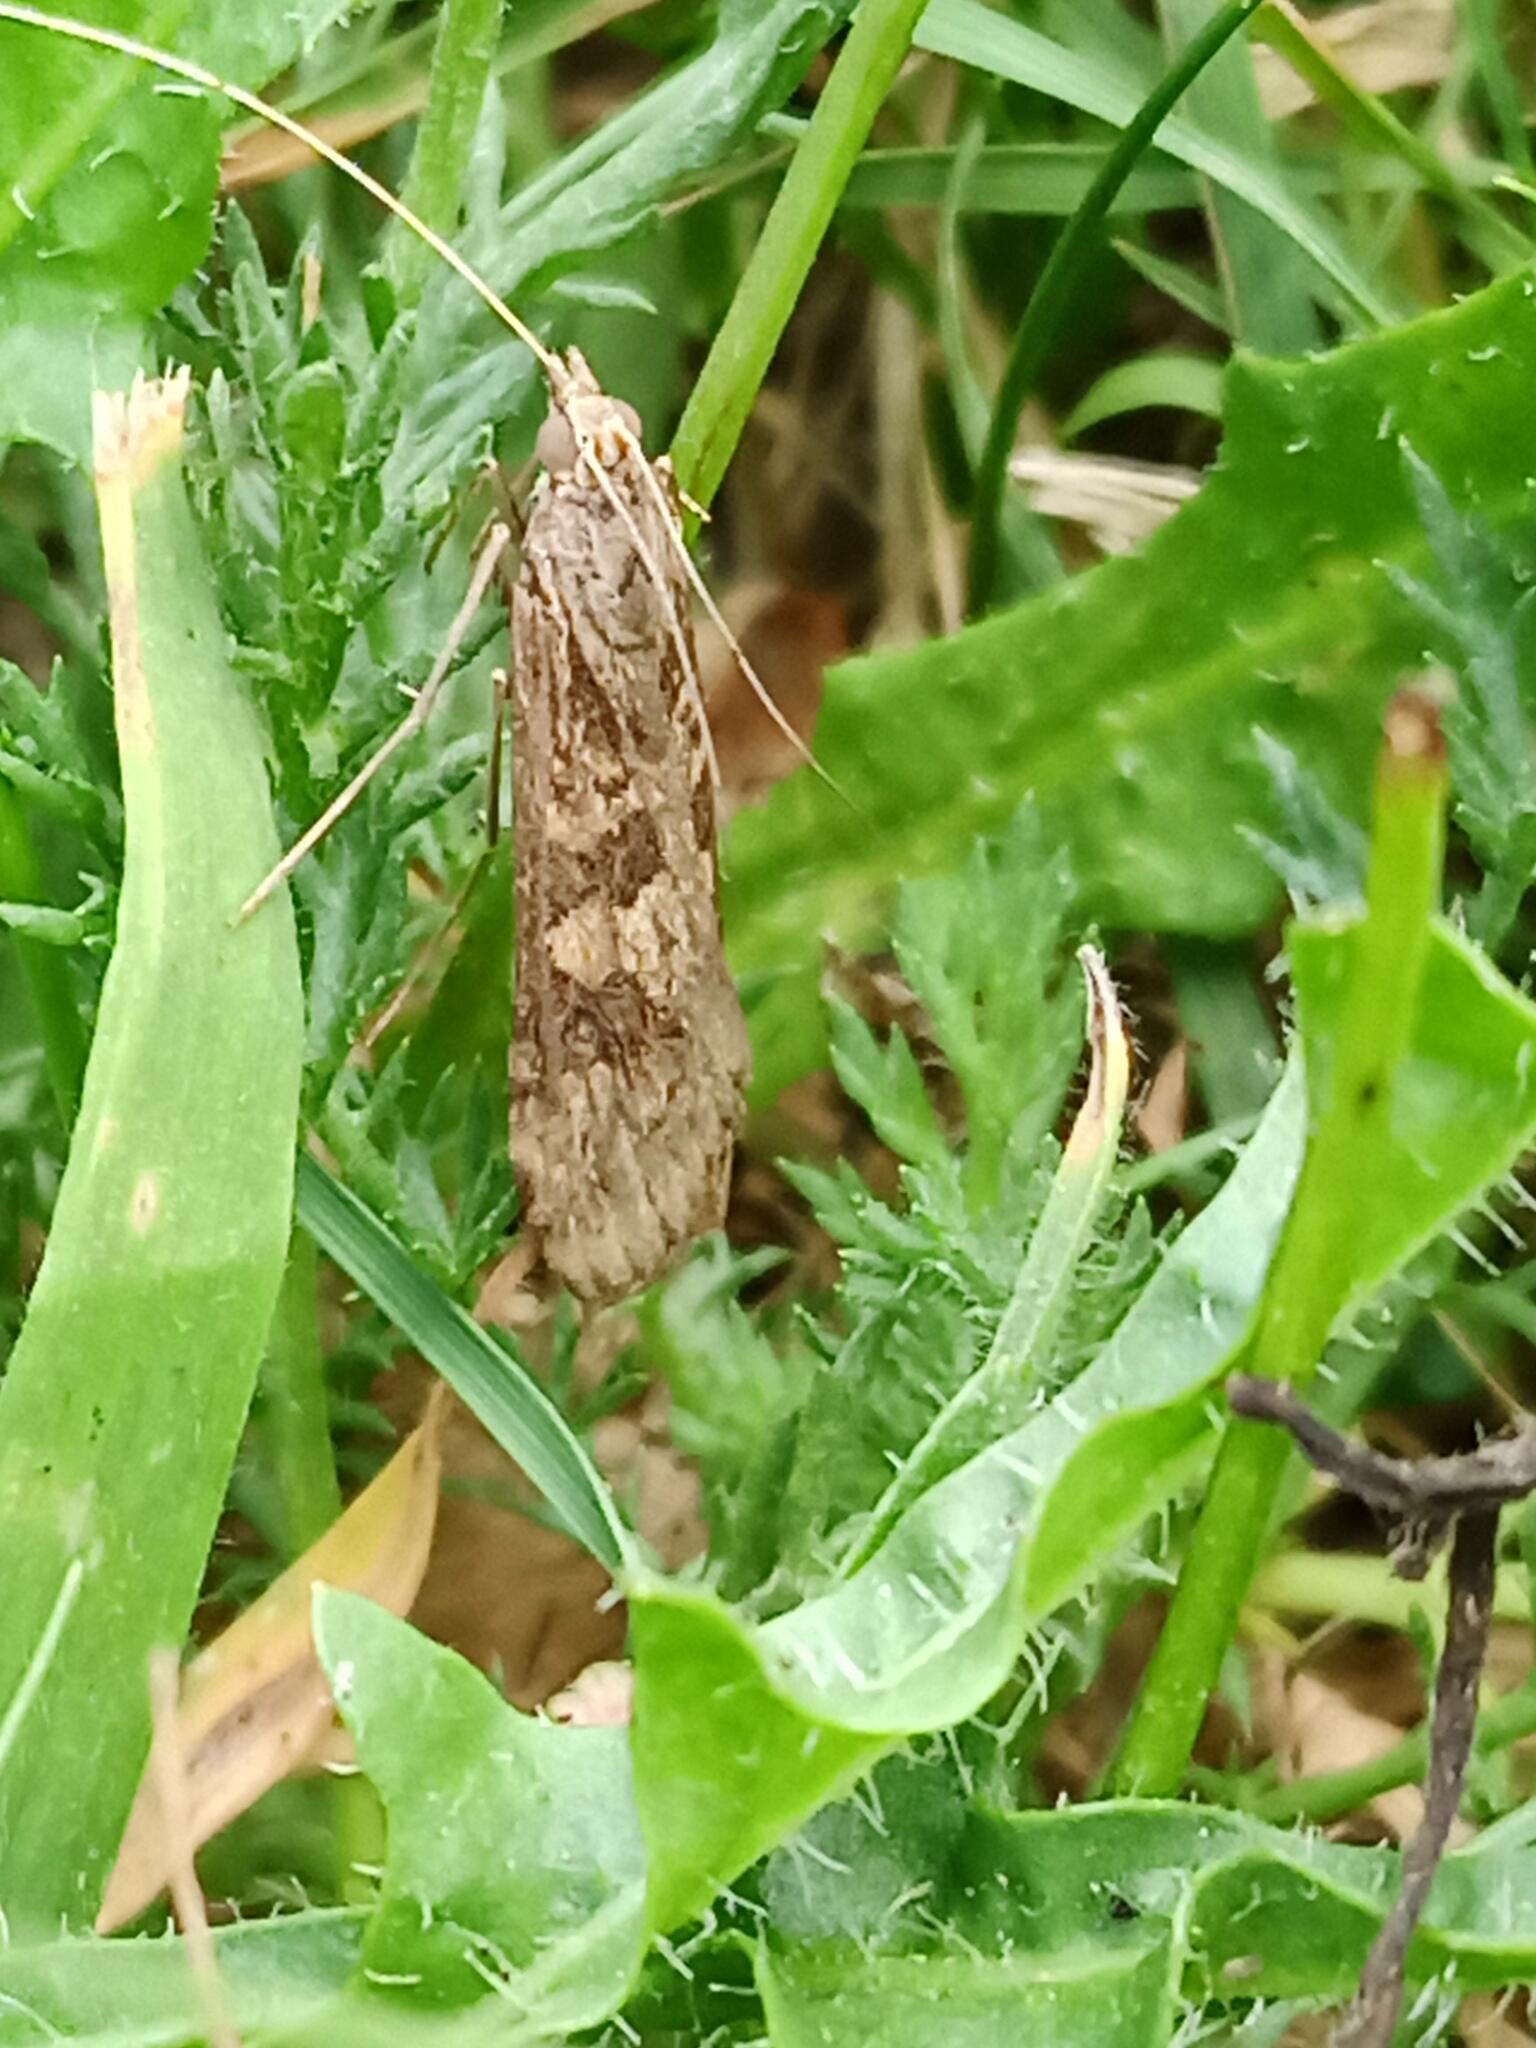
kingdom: Animalia
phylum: Arthropoda
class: Insecta
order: Lepidoptera
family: Crambidae
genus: Nomophila
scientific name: Nomophila noctuella
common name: Rush veneer
